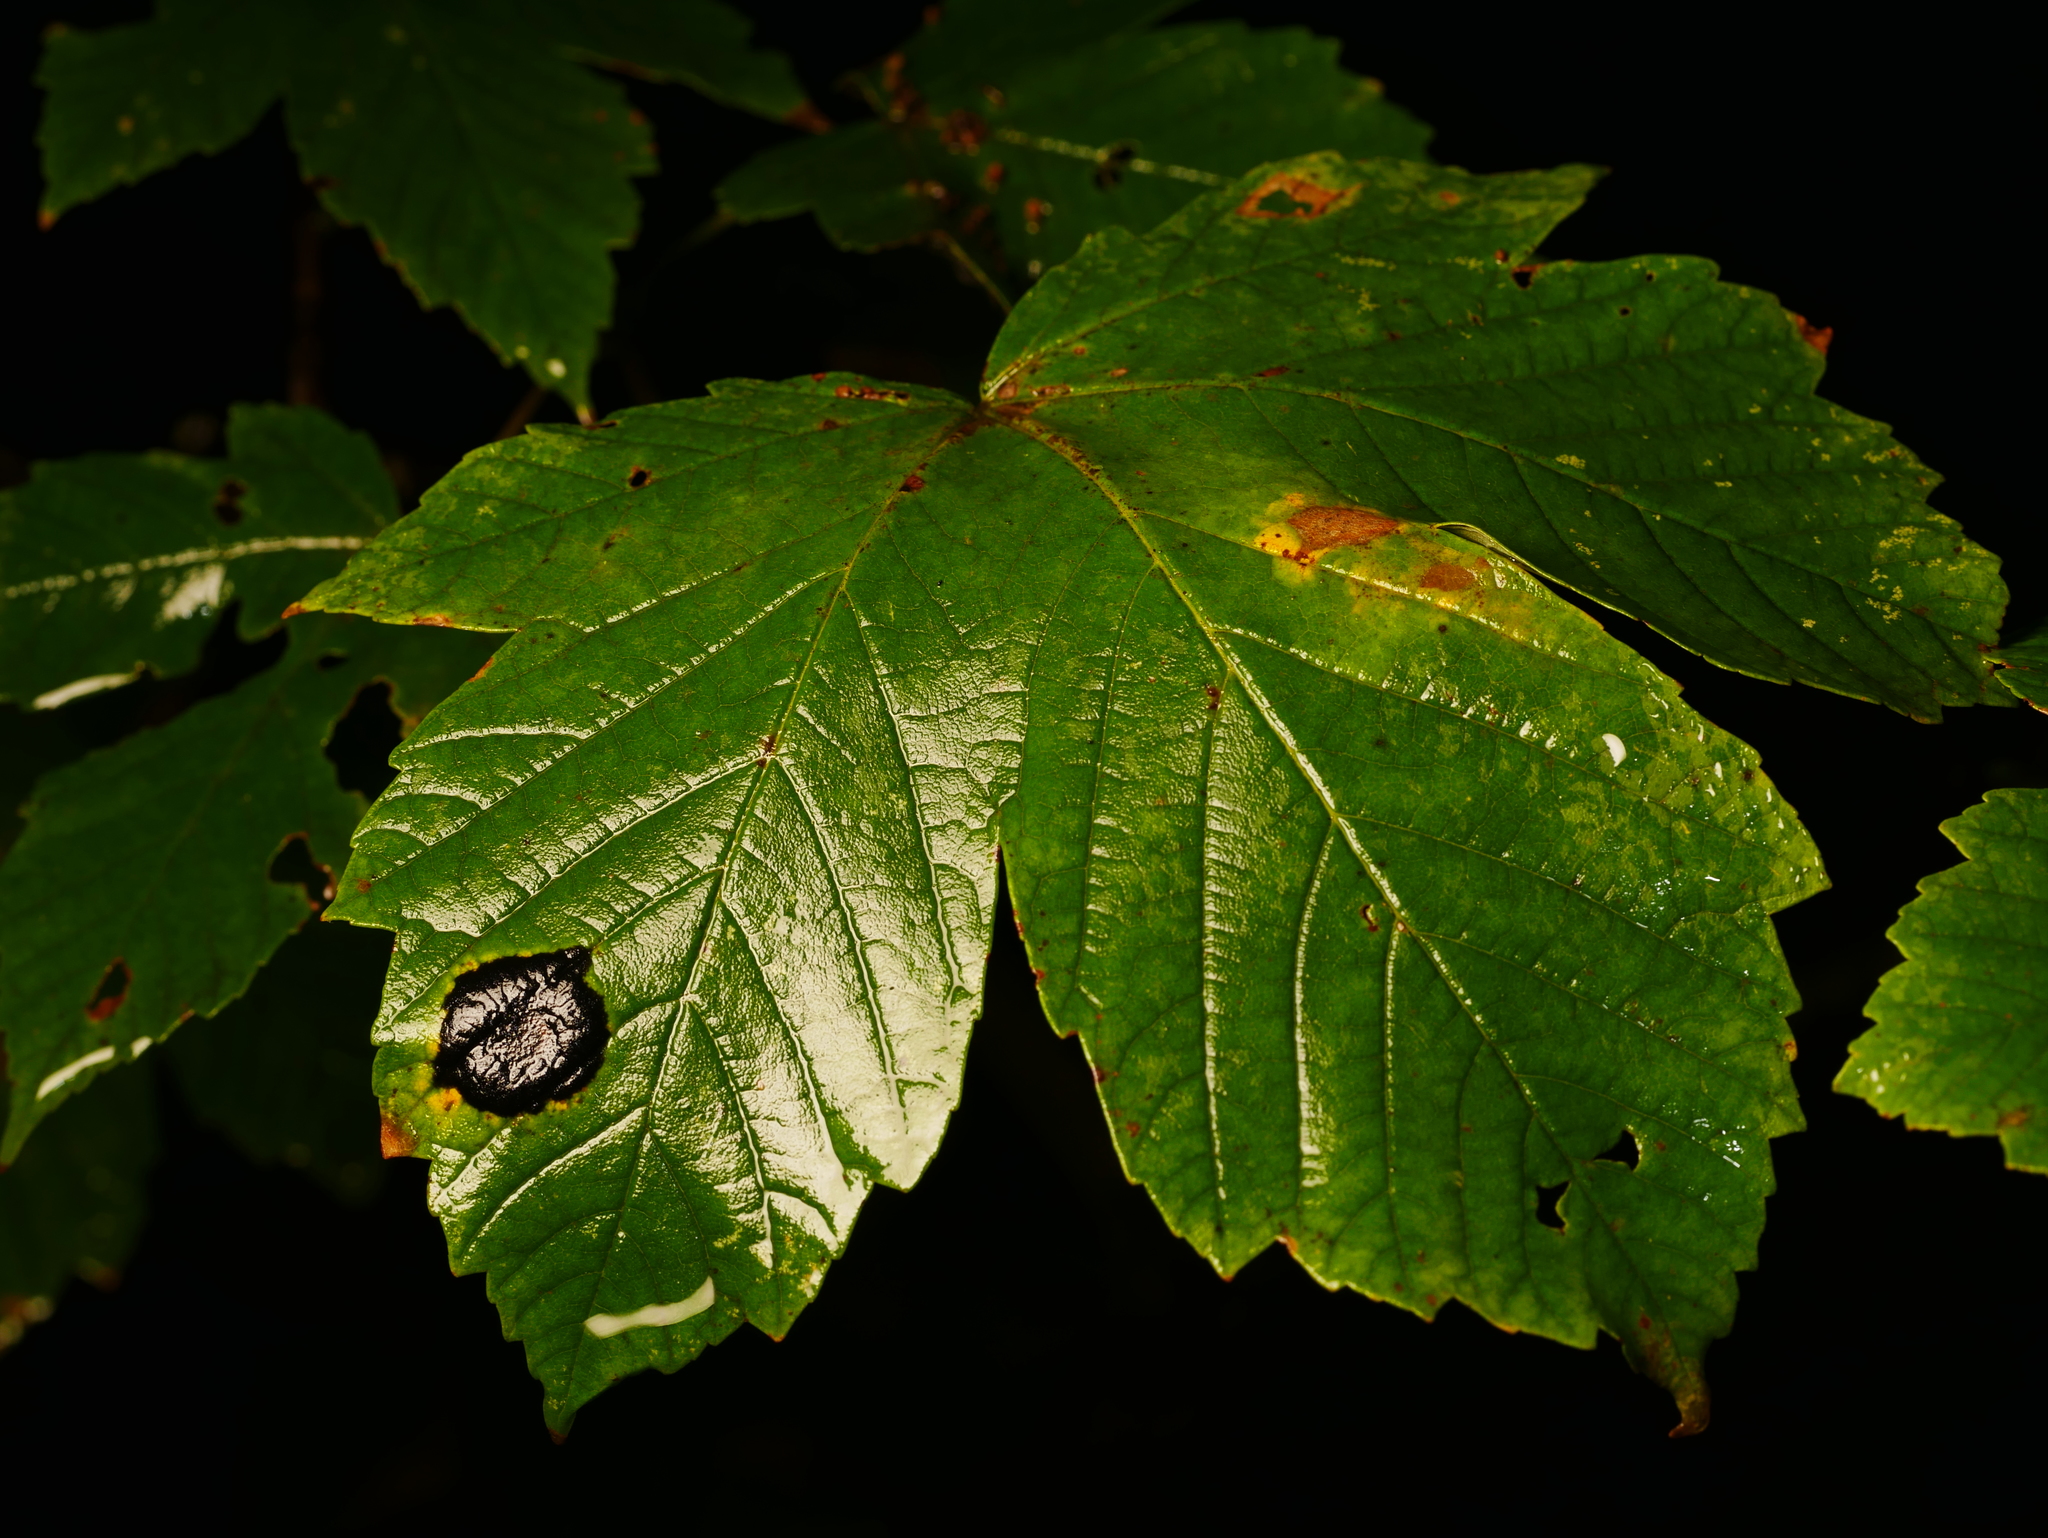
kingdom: Plantae
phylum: Tracheophyta
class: Magnoliopsida
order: Sapindales
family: Sapindaceae
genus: Acer
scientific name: Acer pseudoplatanus
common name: Sycamore
